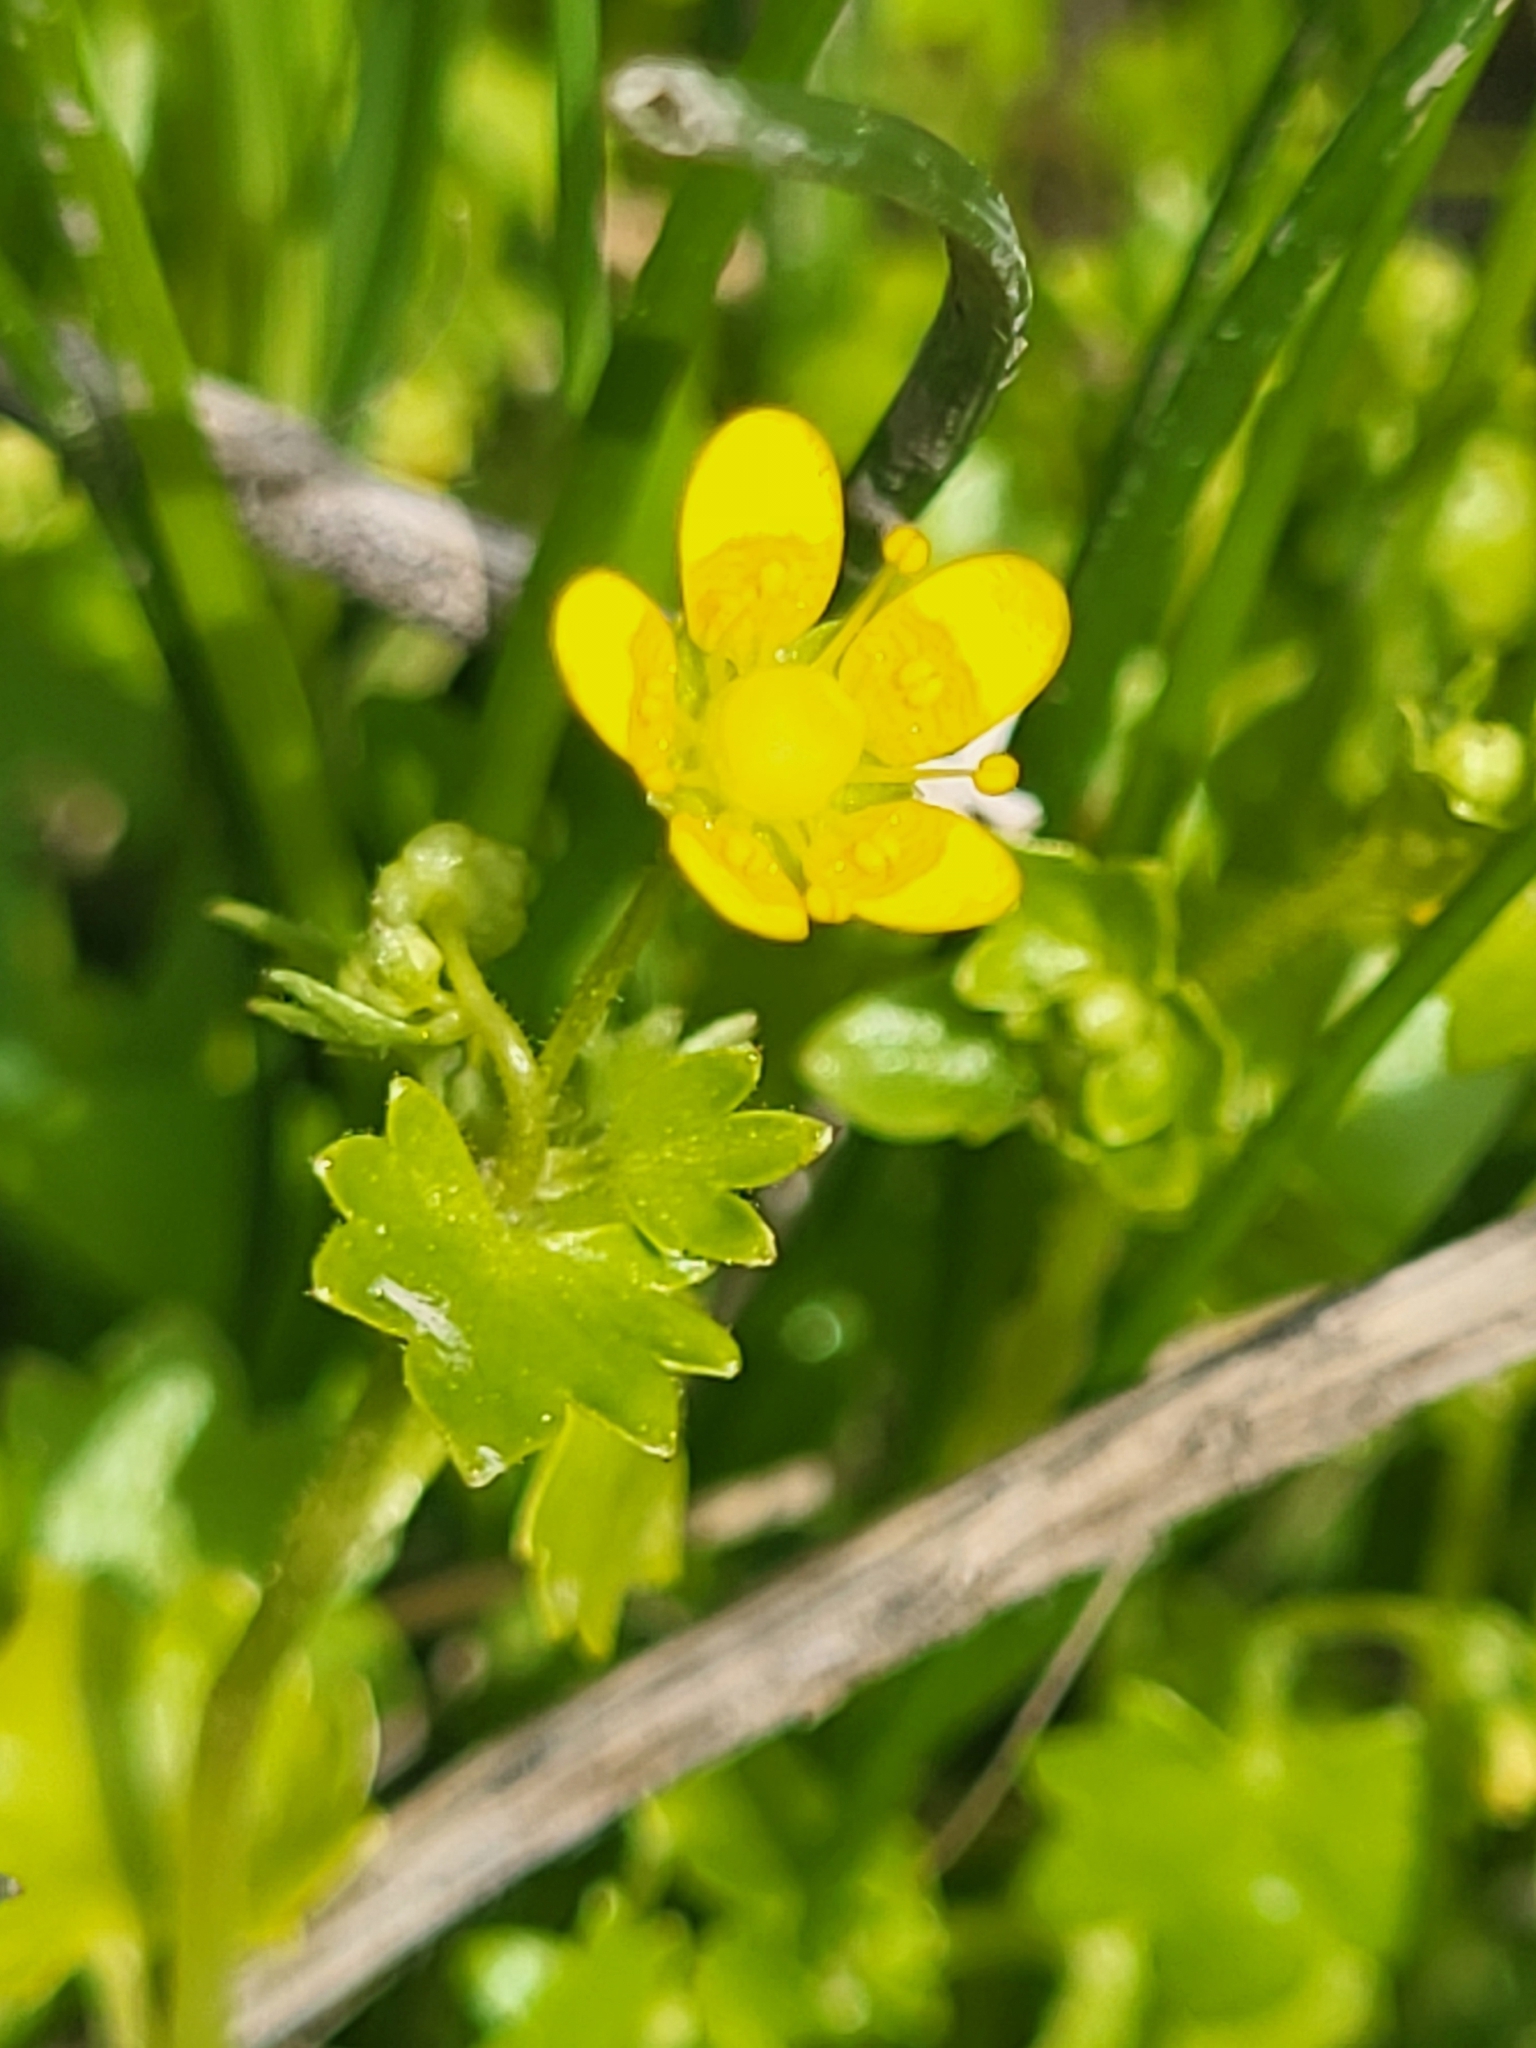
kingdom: Plantae
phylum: Tracheophyta
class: Magnoliopsida
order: Saxifragales
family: Saxifragaceae
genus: Saxifraga
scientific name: Saxifraga cymbalaria
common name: Celandine saxifrage
